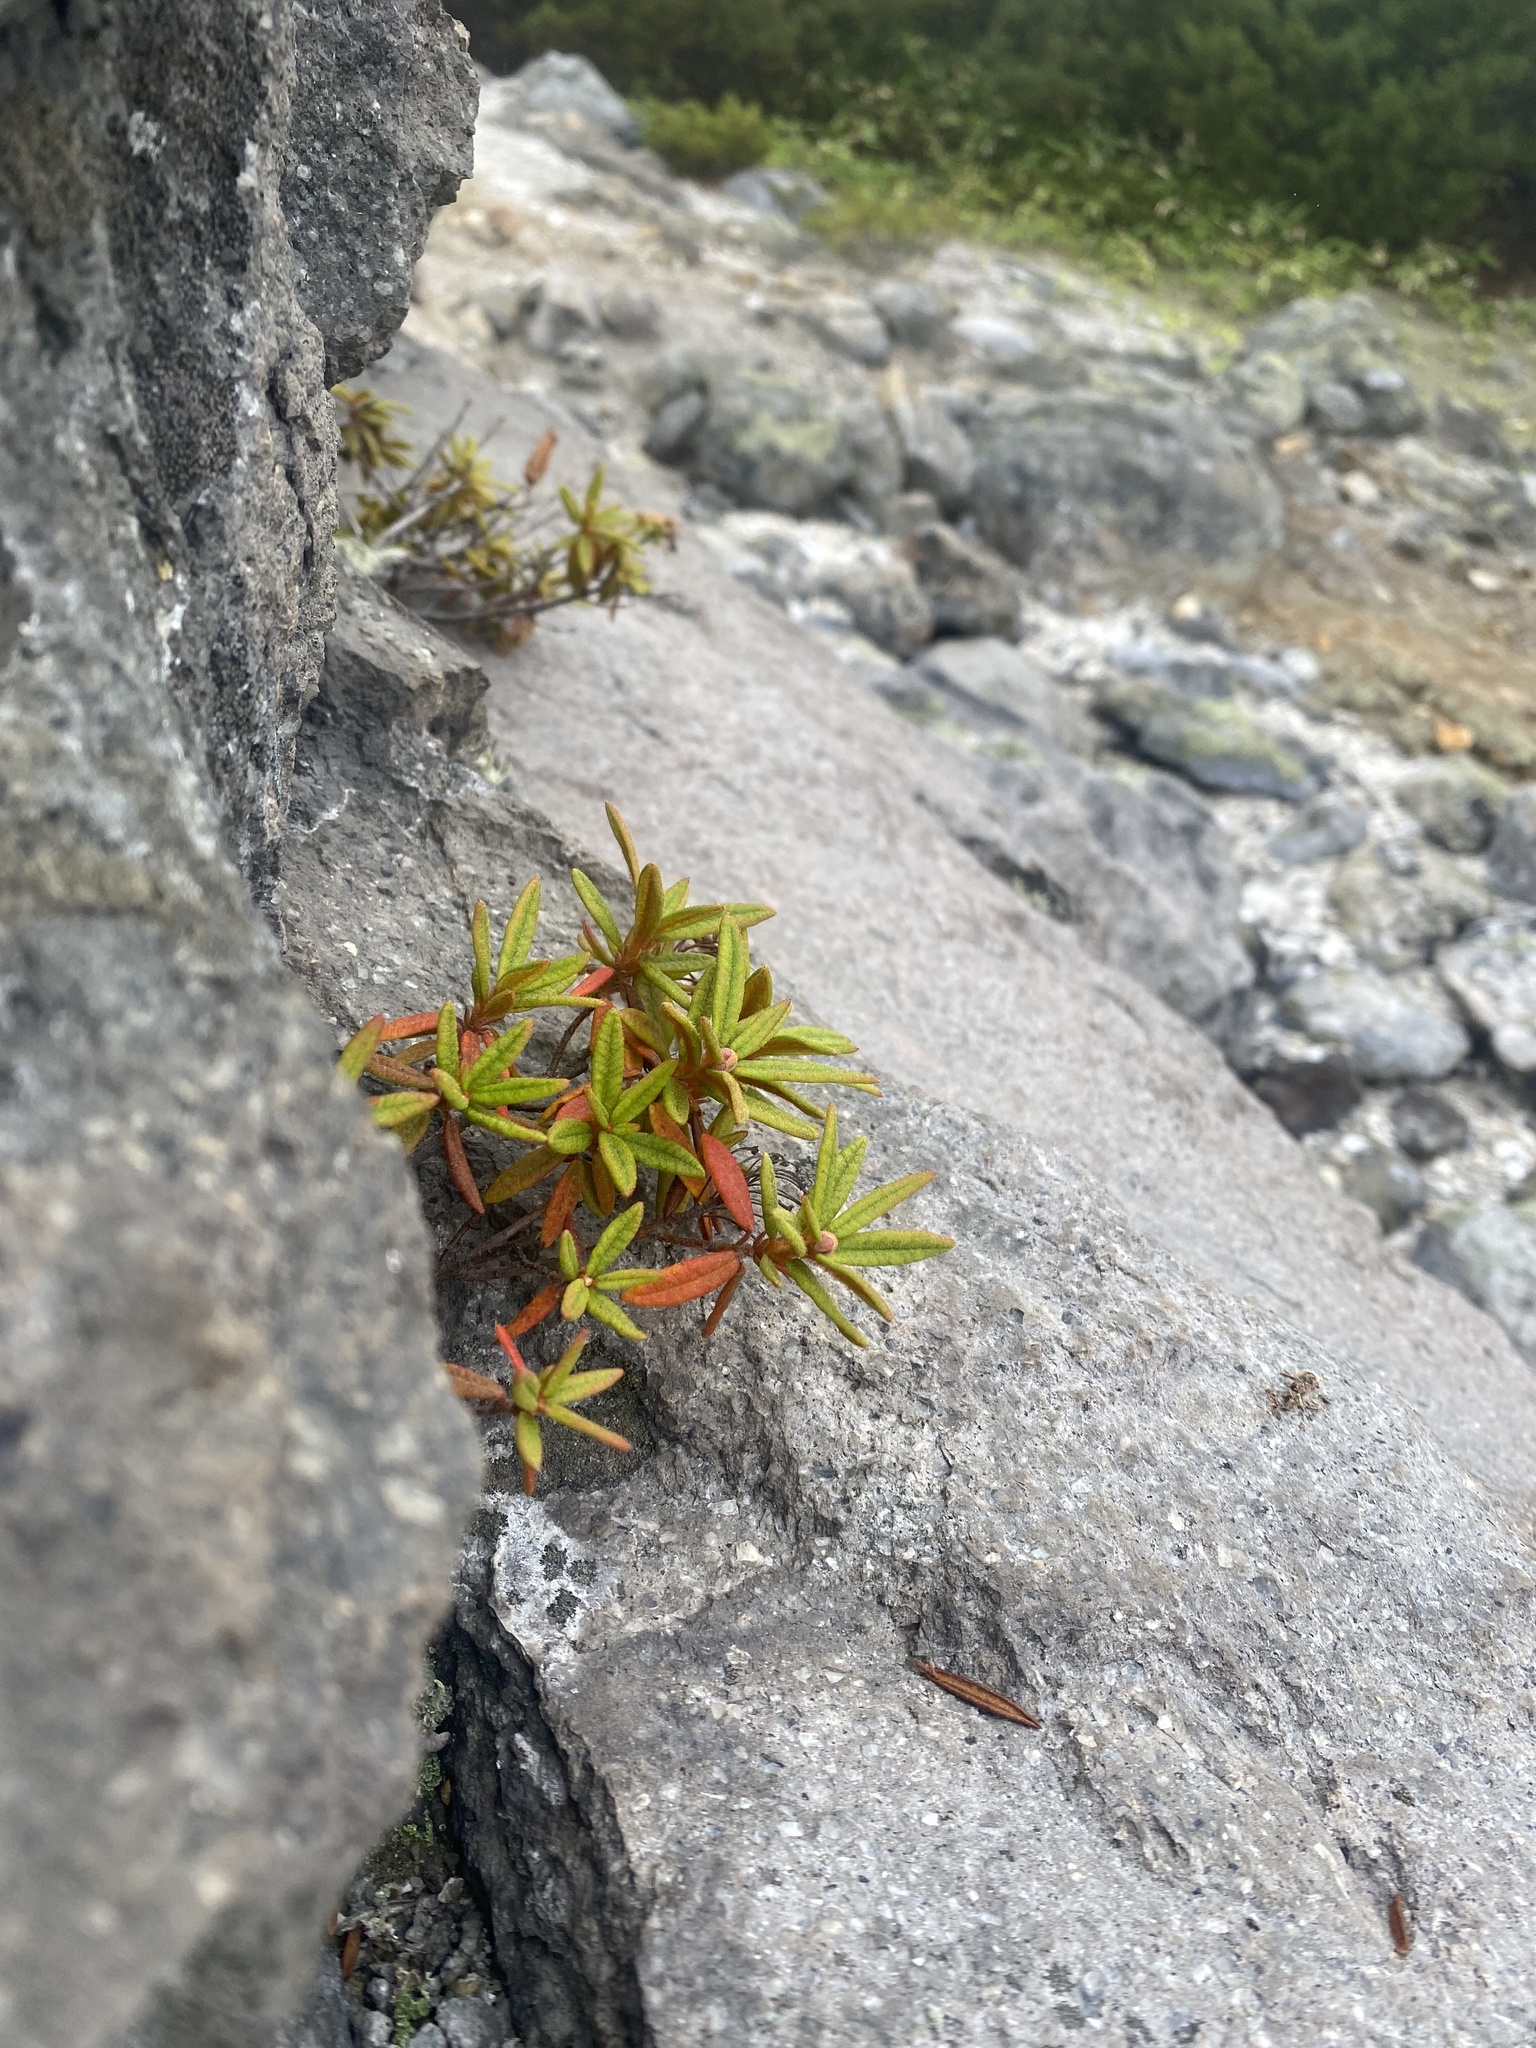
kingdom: Plantae
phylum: Tracheophyta
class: Magnoliopsida
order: Ericales
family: Ericaceae
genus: Rhododendron
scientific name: Rhododendron tomentosum
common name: Marsh labrador tea
